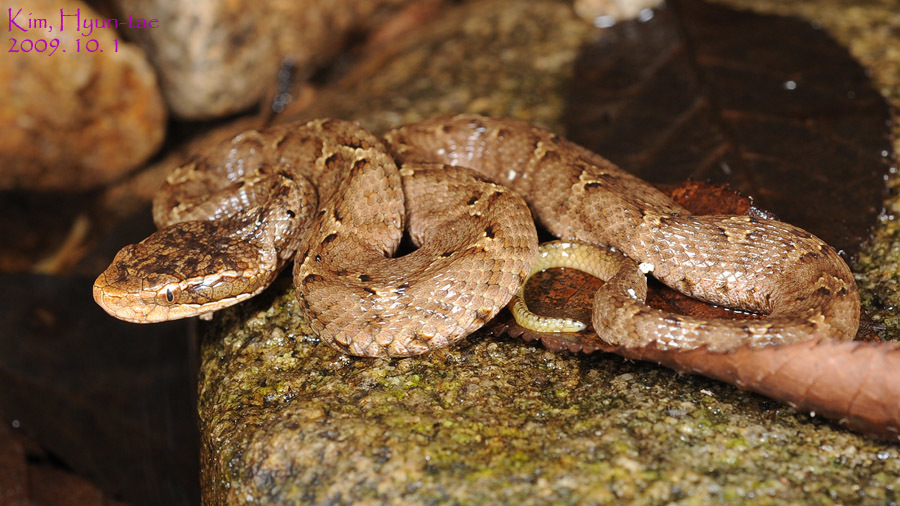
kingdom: Animalia
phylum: Chordata
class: Squamata
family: Viperidae
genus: Gloydius
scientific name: Gloydius ussuriensis
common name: Ussuri mamushi
